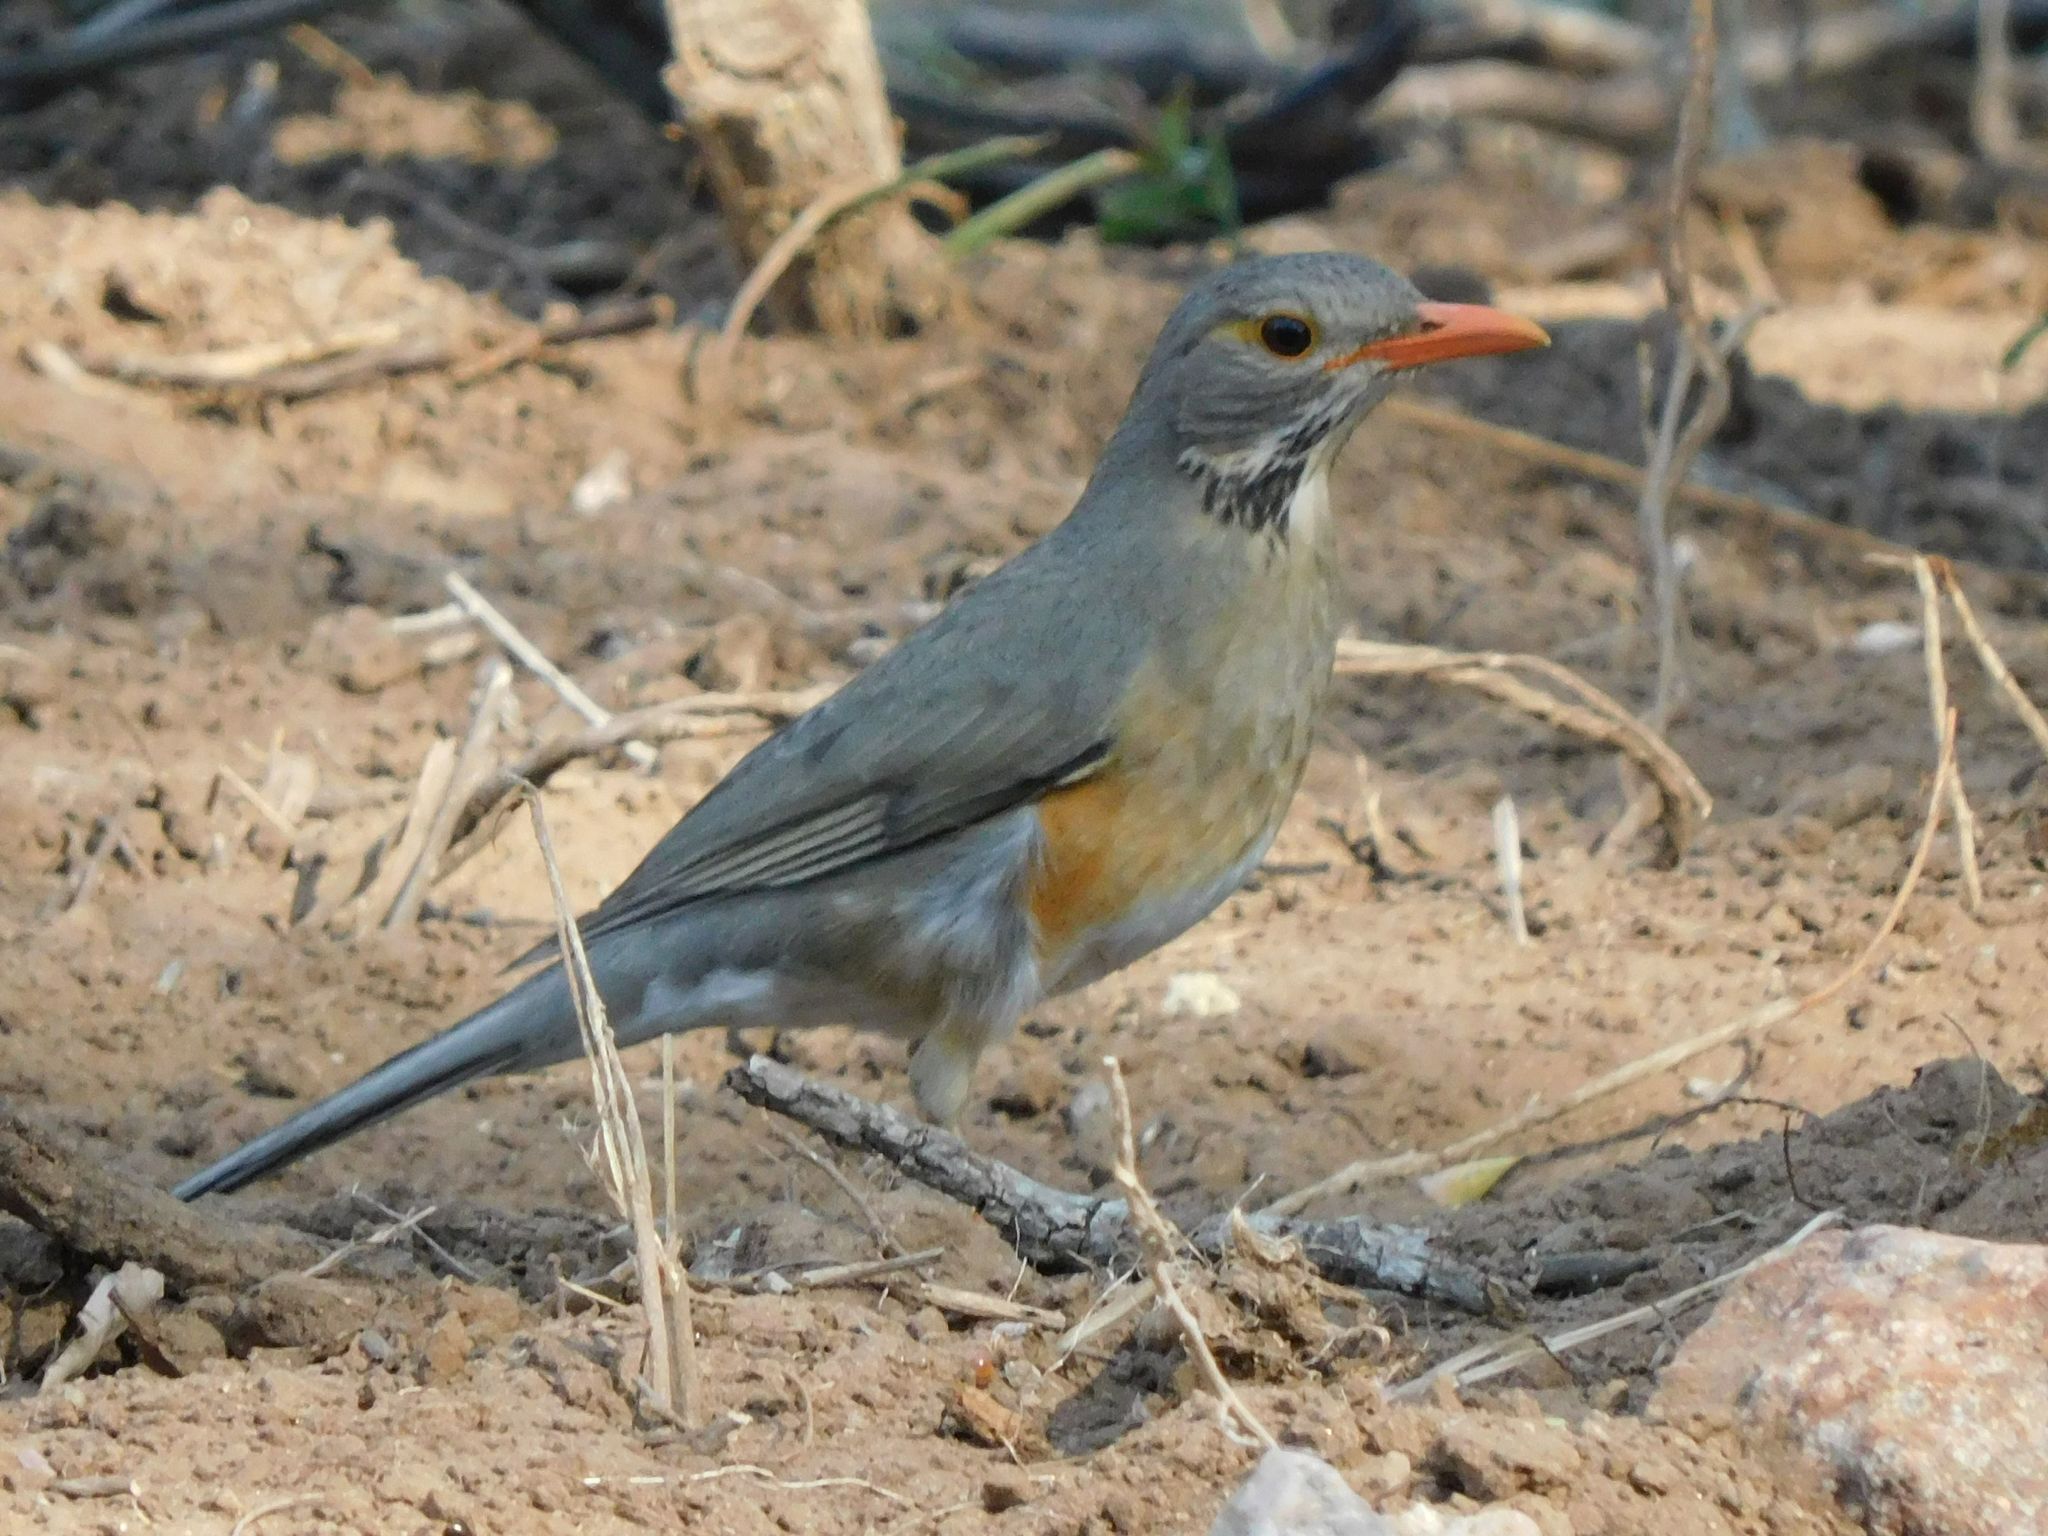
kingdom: Animalia
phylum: Chordata
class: Aves
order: Passeriformes
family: Turdidae
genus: Turdus
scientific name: Turdus libonyana
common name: Kurrichane thrush
